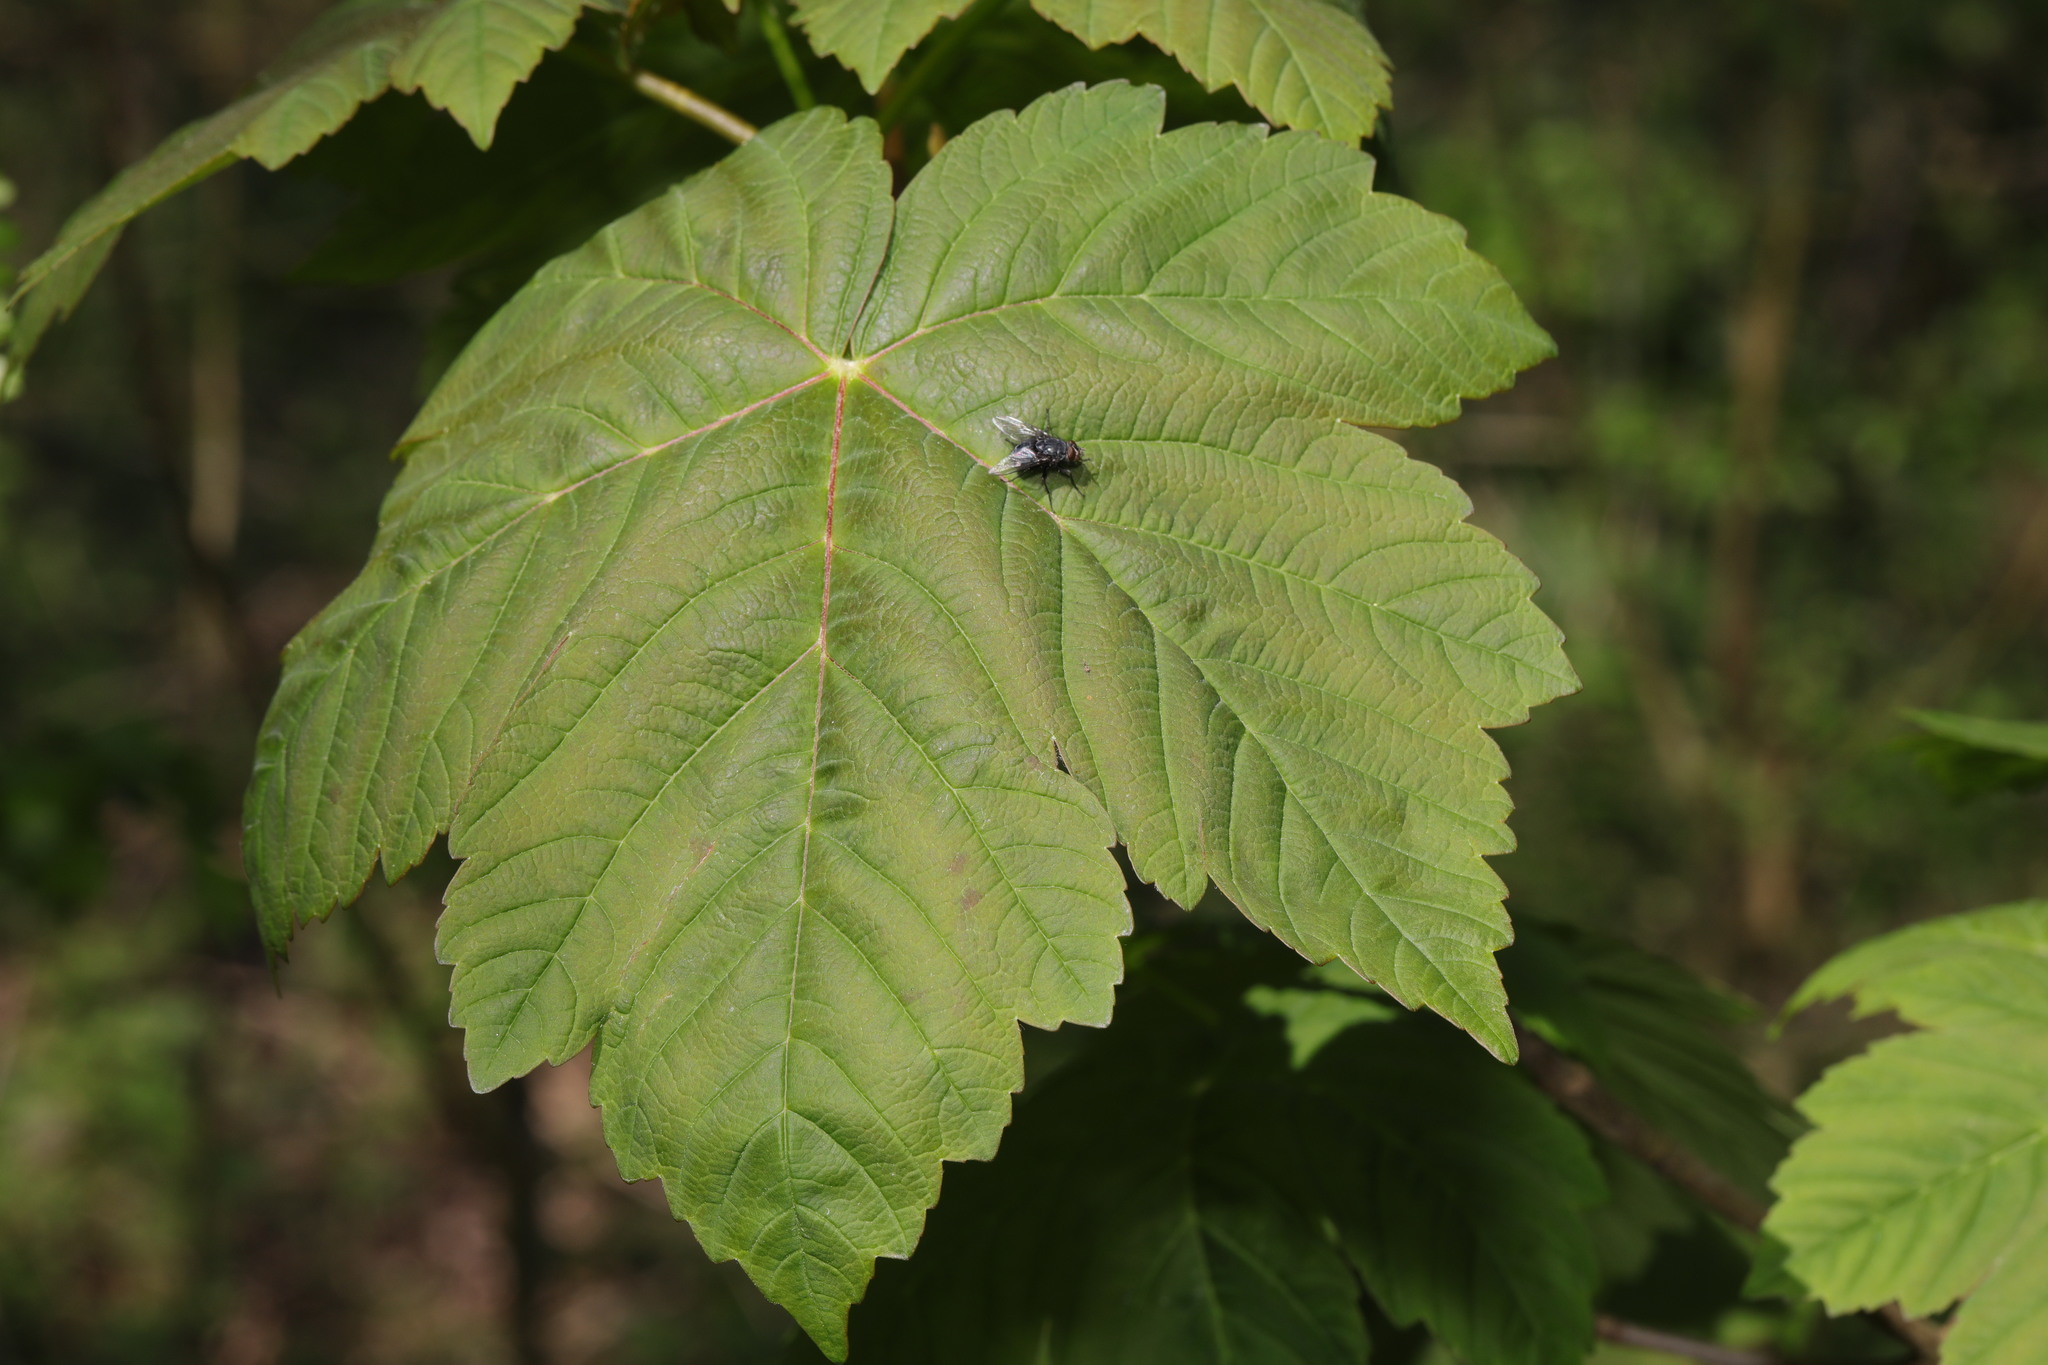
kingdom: Plantae
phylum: Tracheophyta
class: Magnoliopsida
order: Sapindales
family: Sapindaceae
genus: Acer
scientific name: Acer pseudoplatanus
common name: Sycamore
